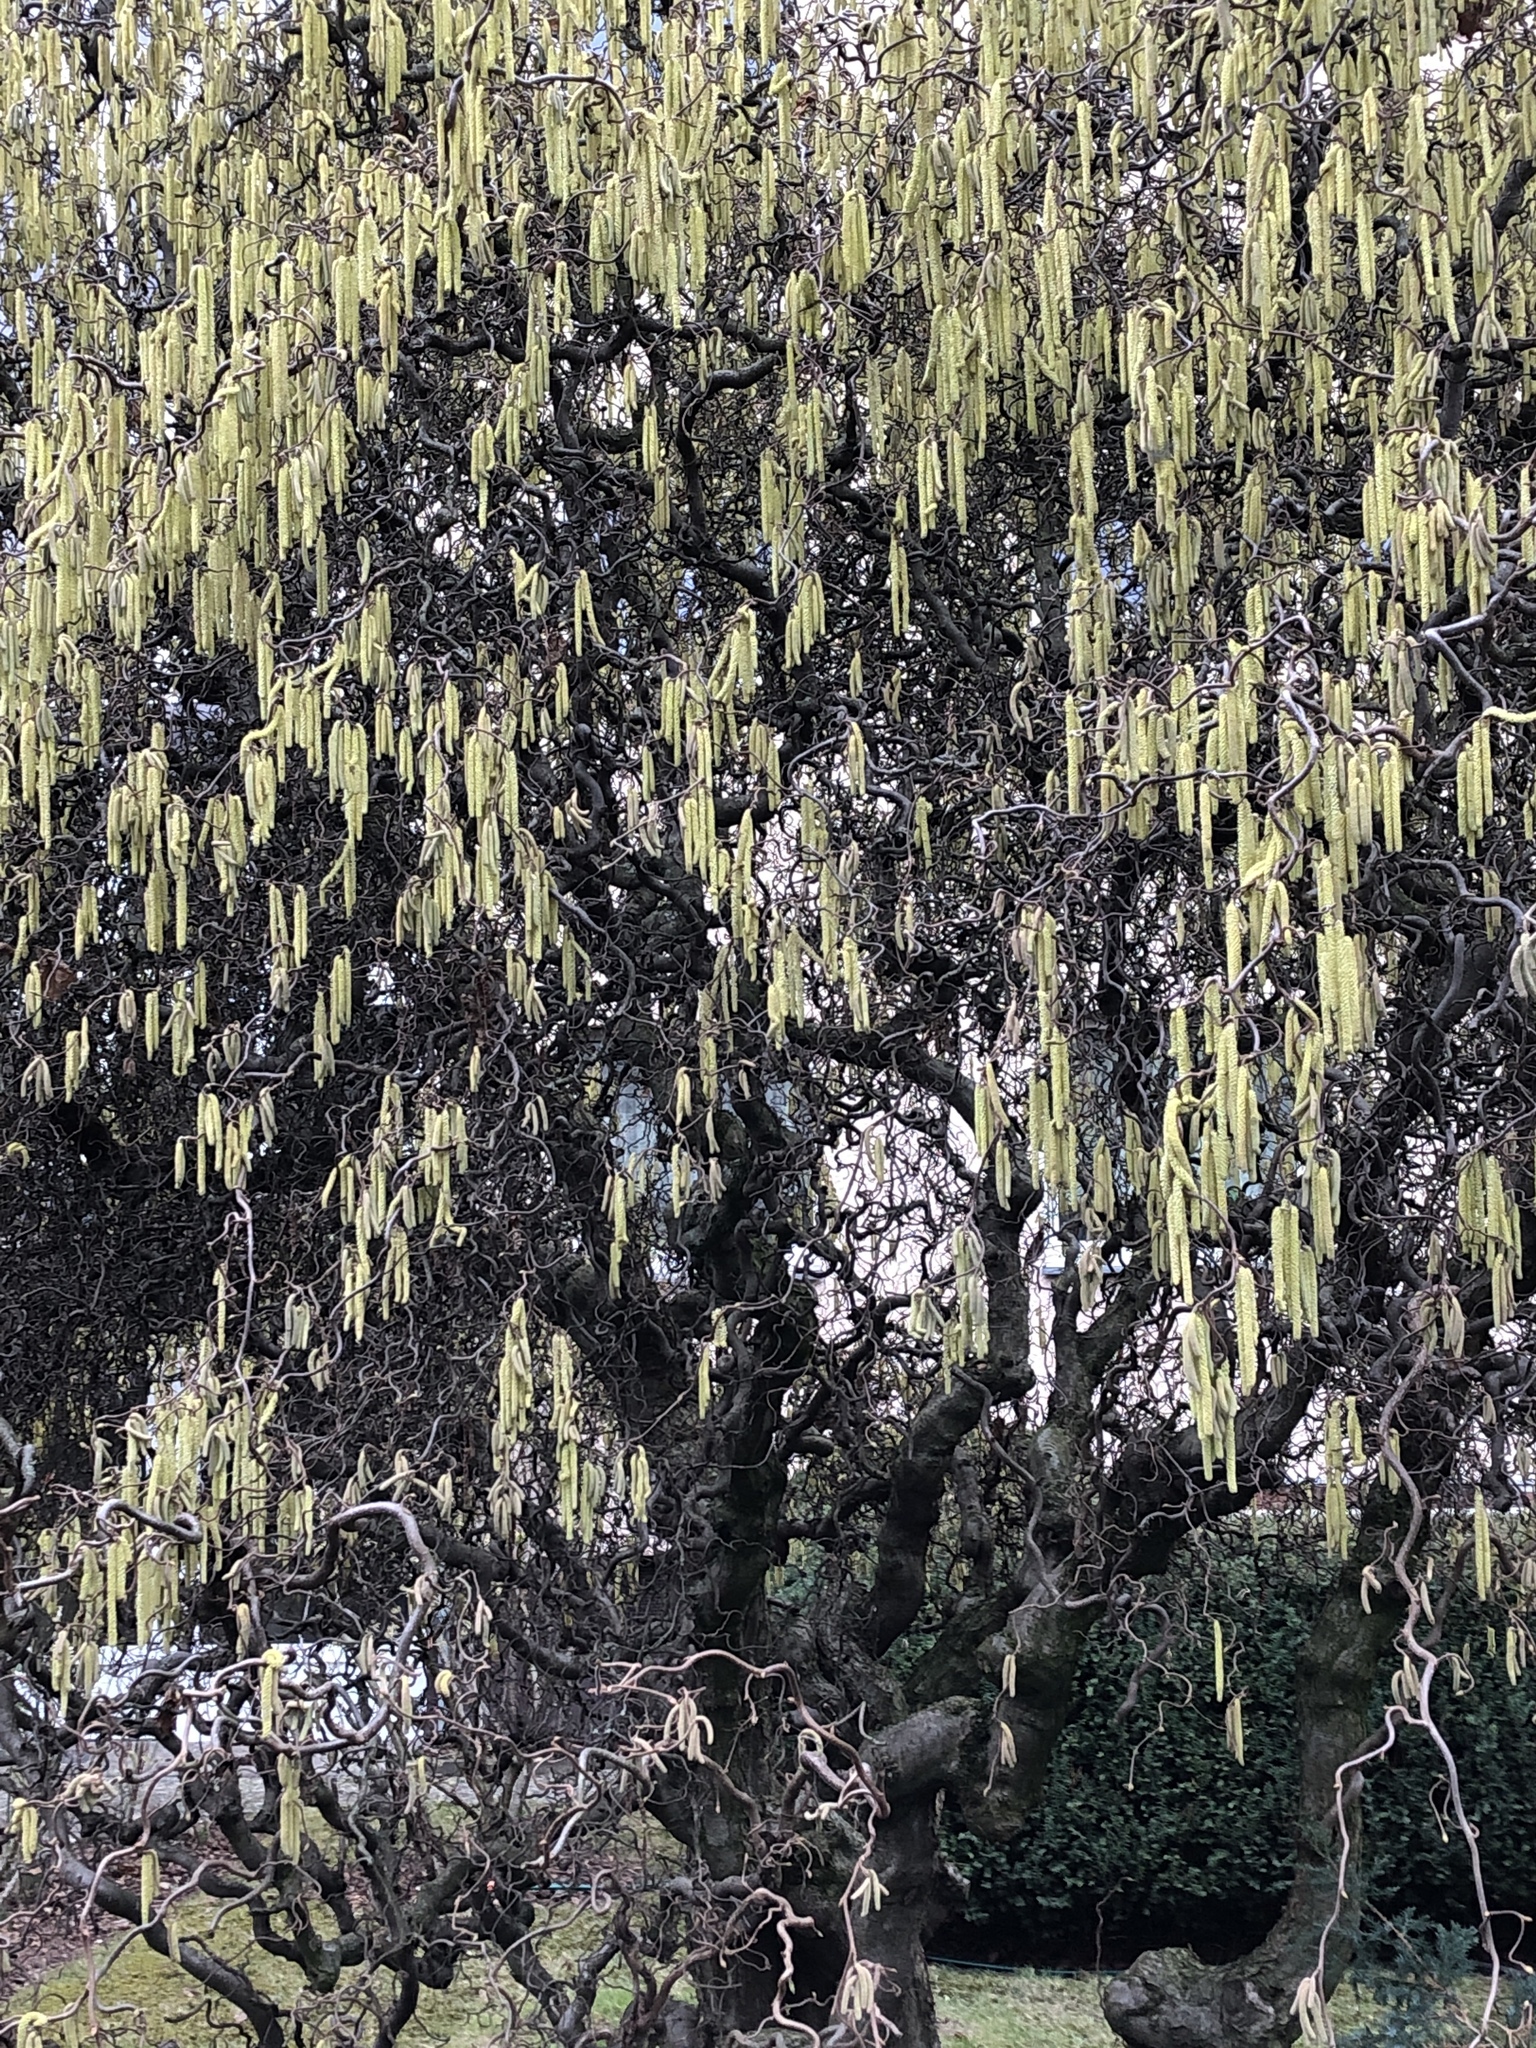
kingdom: Plantae
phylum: Tracheophyta
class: Magnoliopsida
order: Fagales
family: Betulaceae
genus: Corylus
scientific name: Corylus avellana
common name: European hazel
